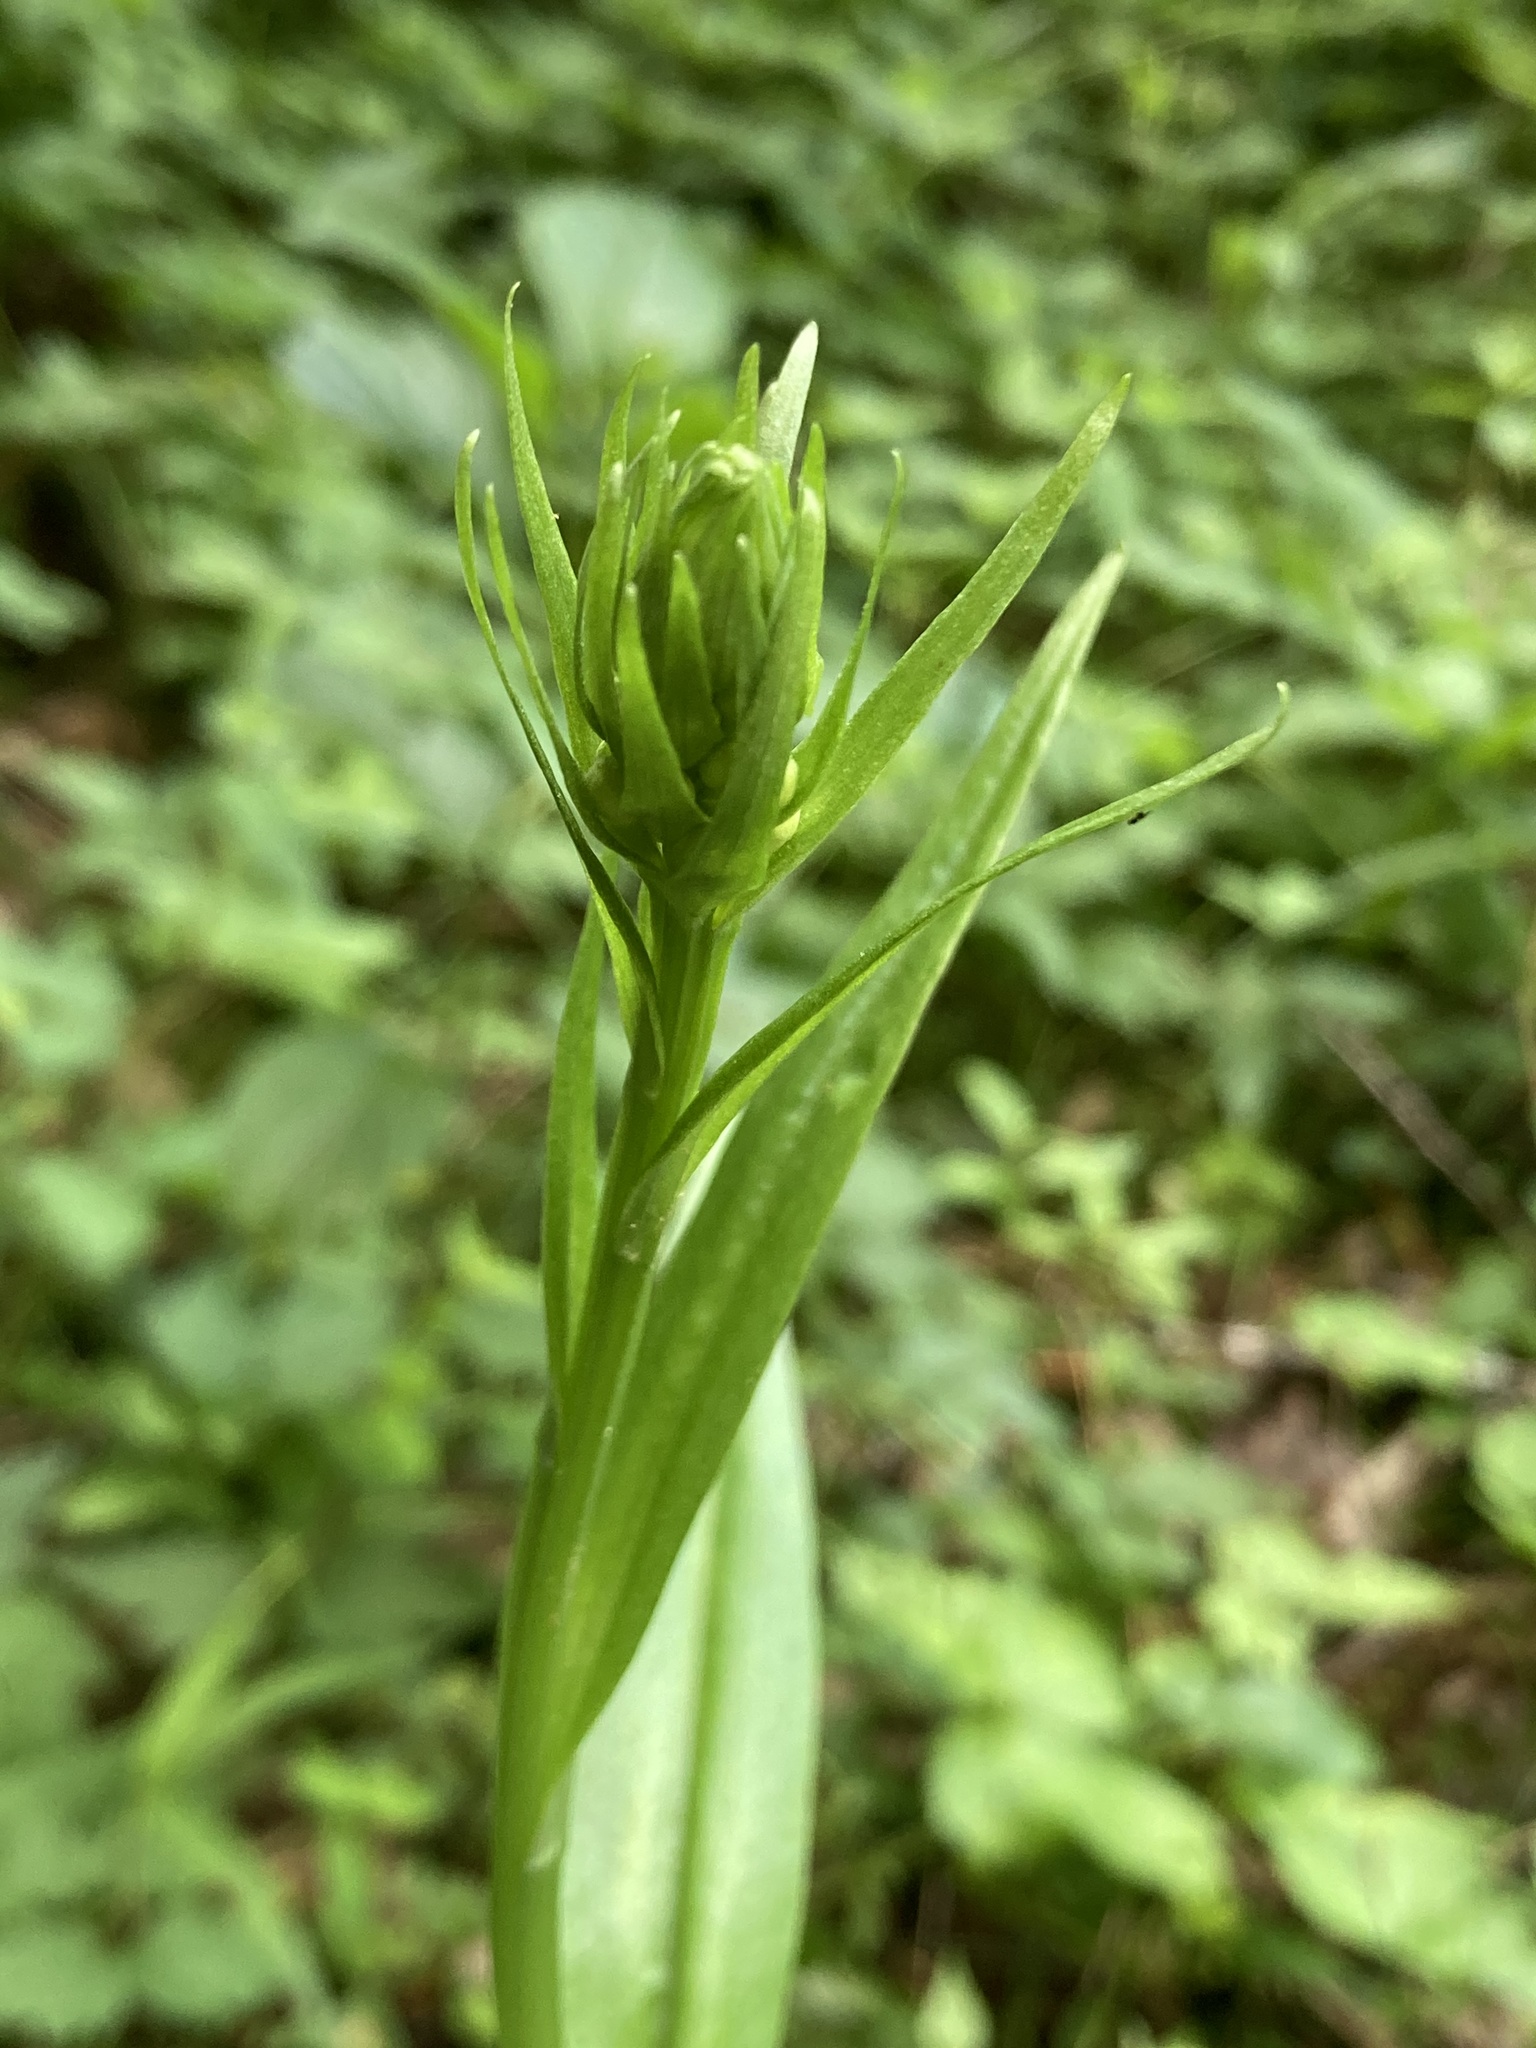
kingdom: Plantae
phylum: Tracheophyta
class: Liliopsida
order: Asparagales
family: Orchidaceae
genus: Platanthera
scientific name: Platanthera psycodes
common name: Lesser purple fringed orchid
